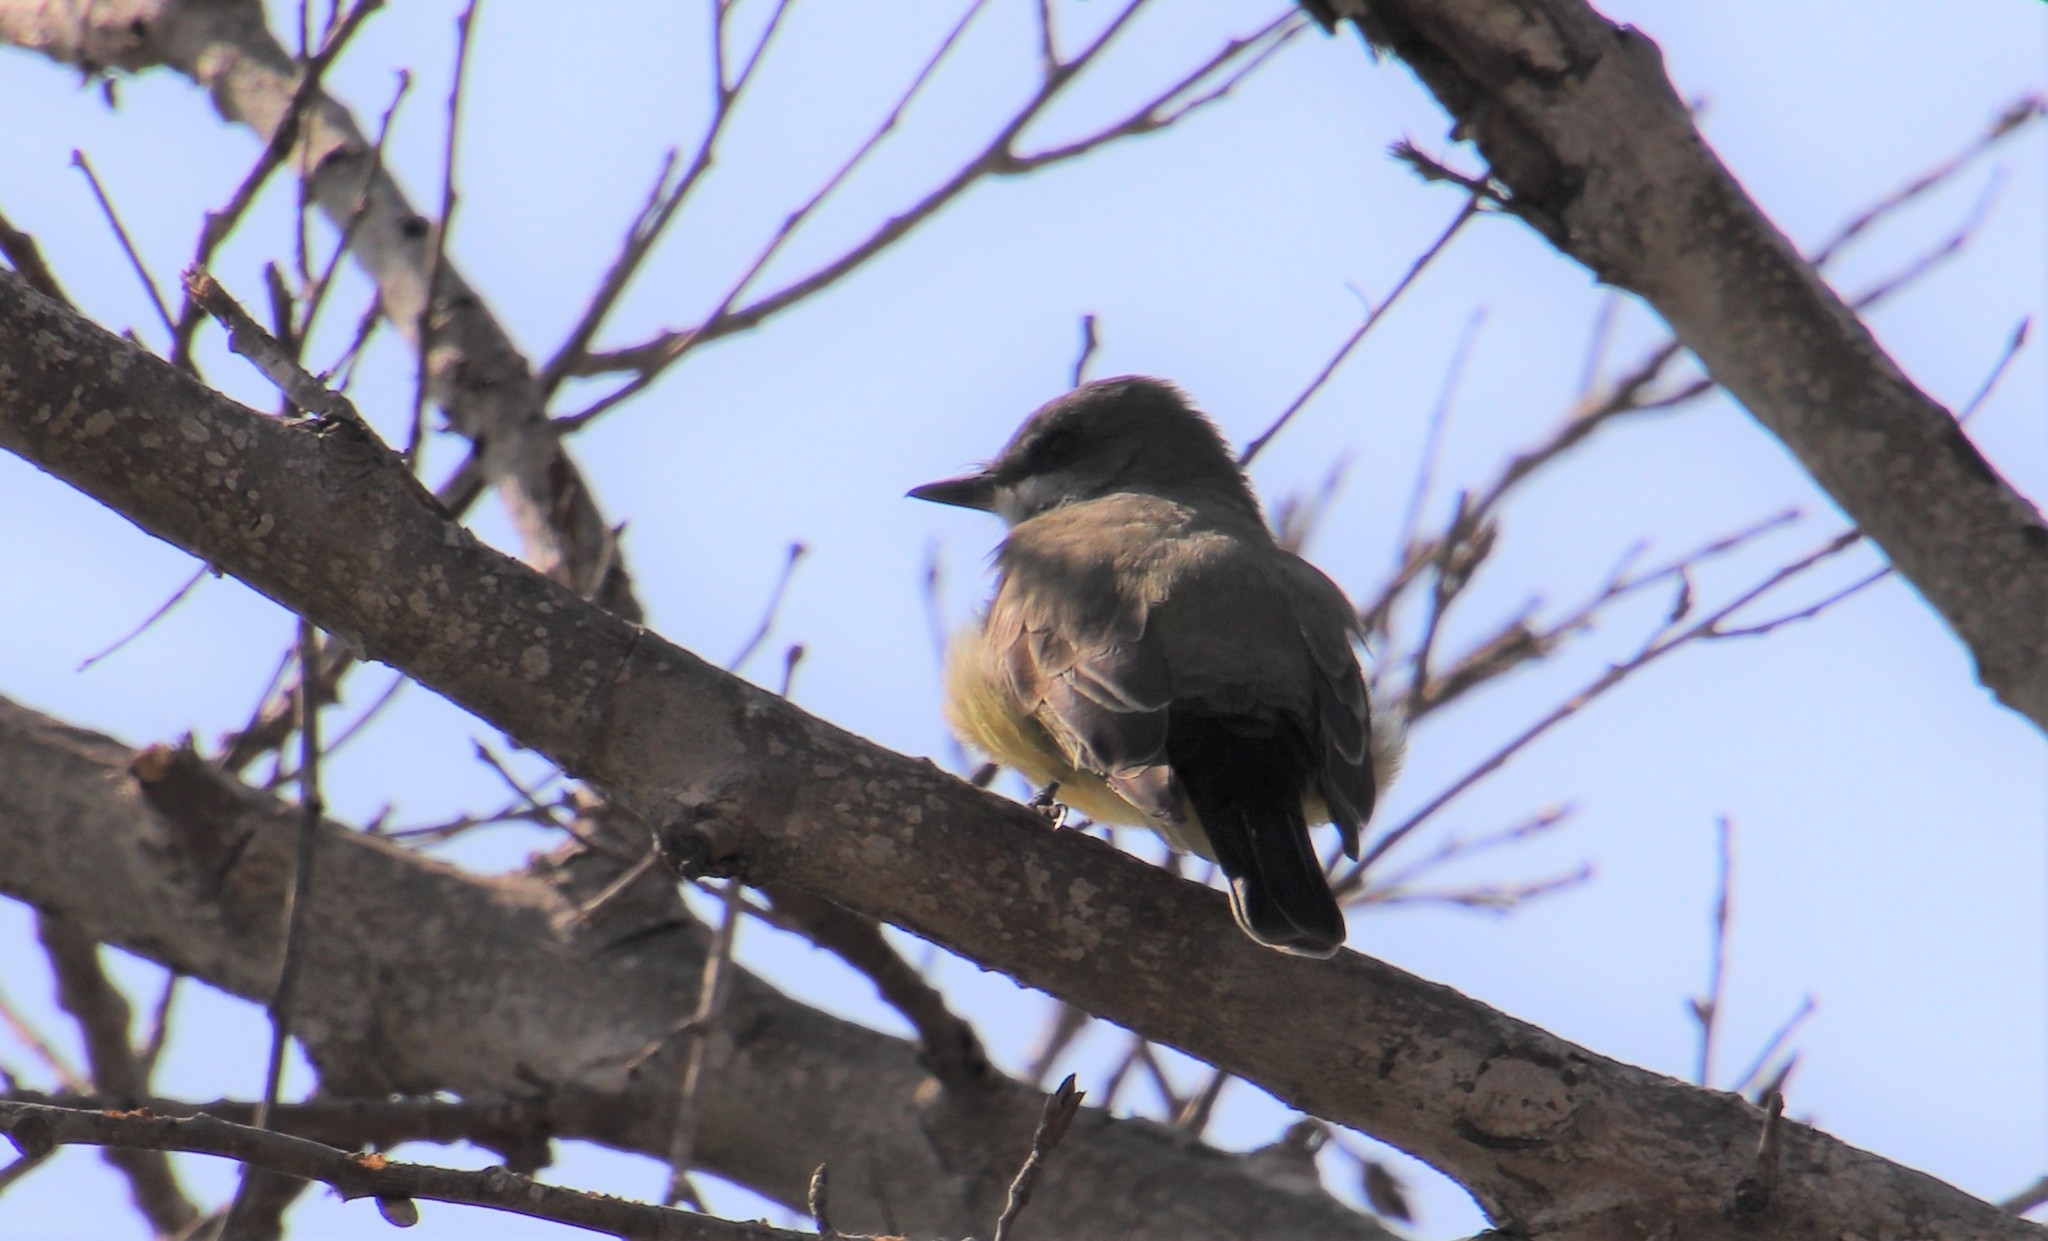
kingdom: Animalia
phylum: Chordata
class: Aves
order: Passeriformes
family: Tyrannidae
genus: Tyrannus
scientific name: Tyrannus vociferans
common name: Cassin's kingbird
